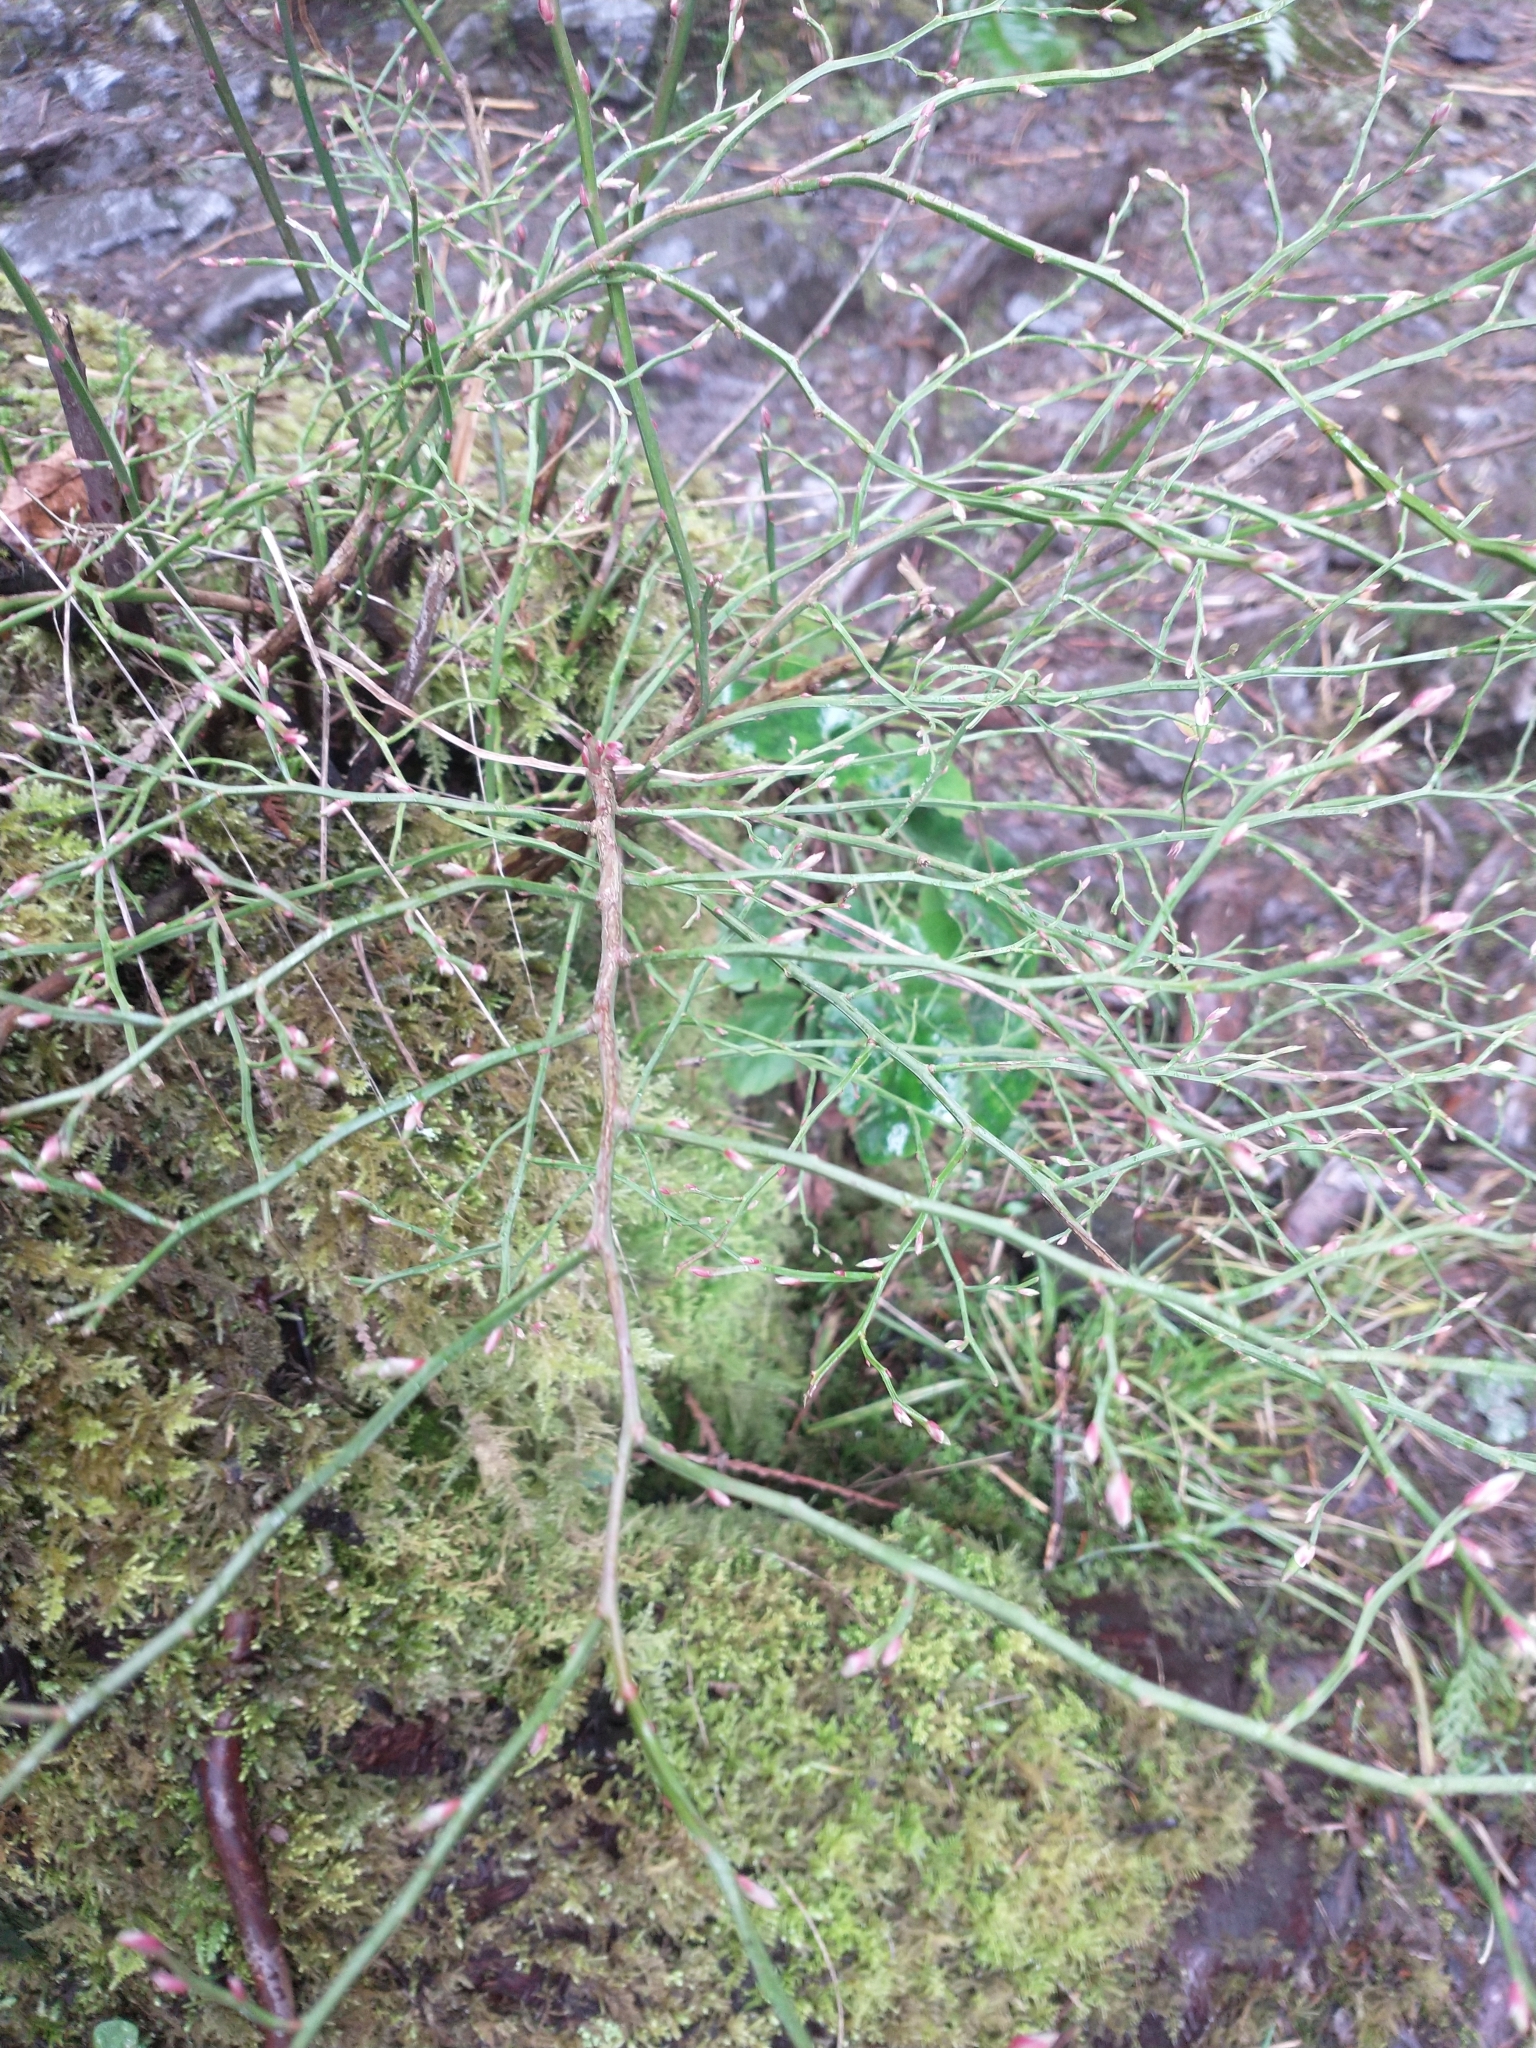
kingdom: Plantae
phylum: Tracheophyta
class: Magnoliopsida
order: Ericales
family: Ericaceae
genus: Vaccinium
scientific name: Vaccinium parvifolium
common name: Red-huckleberry
